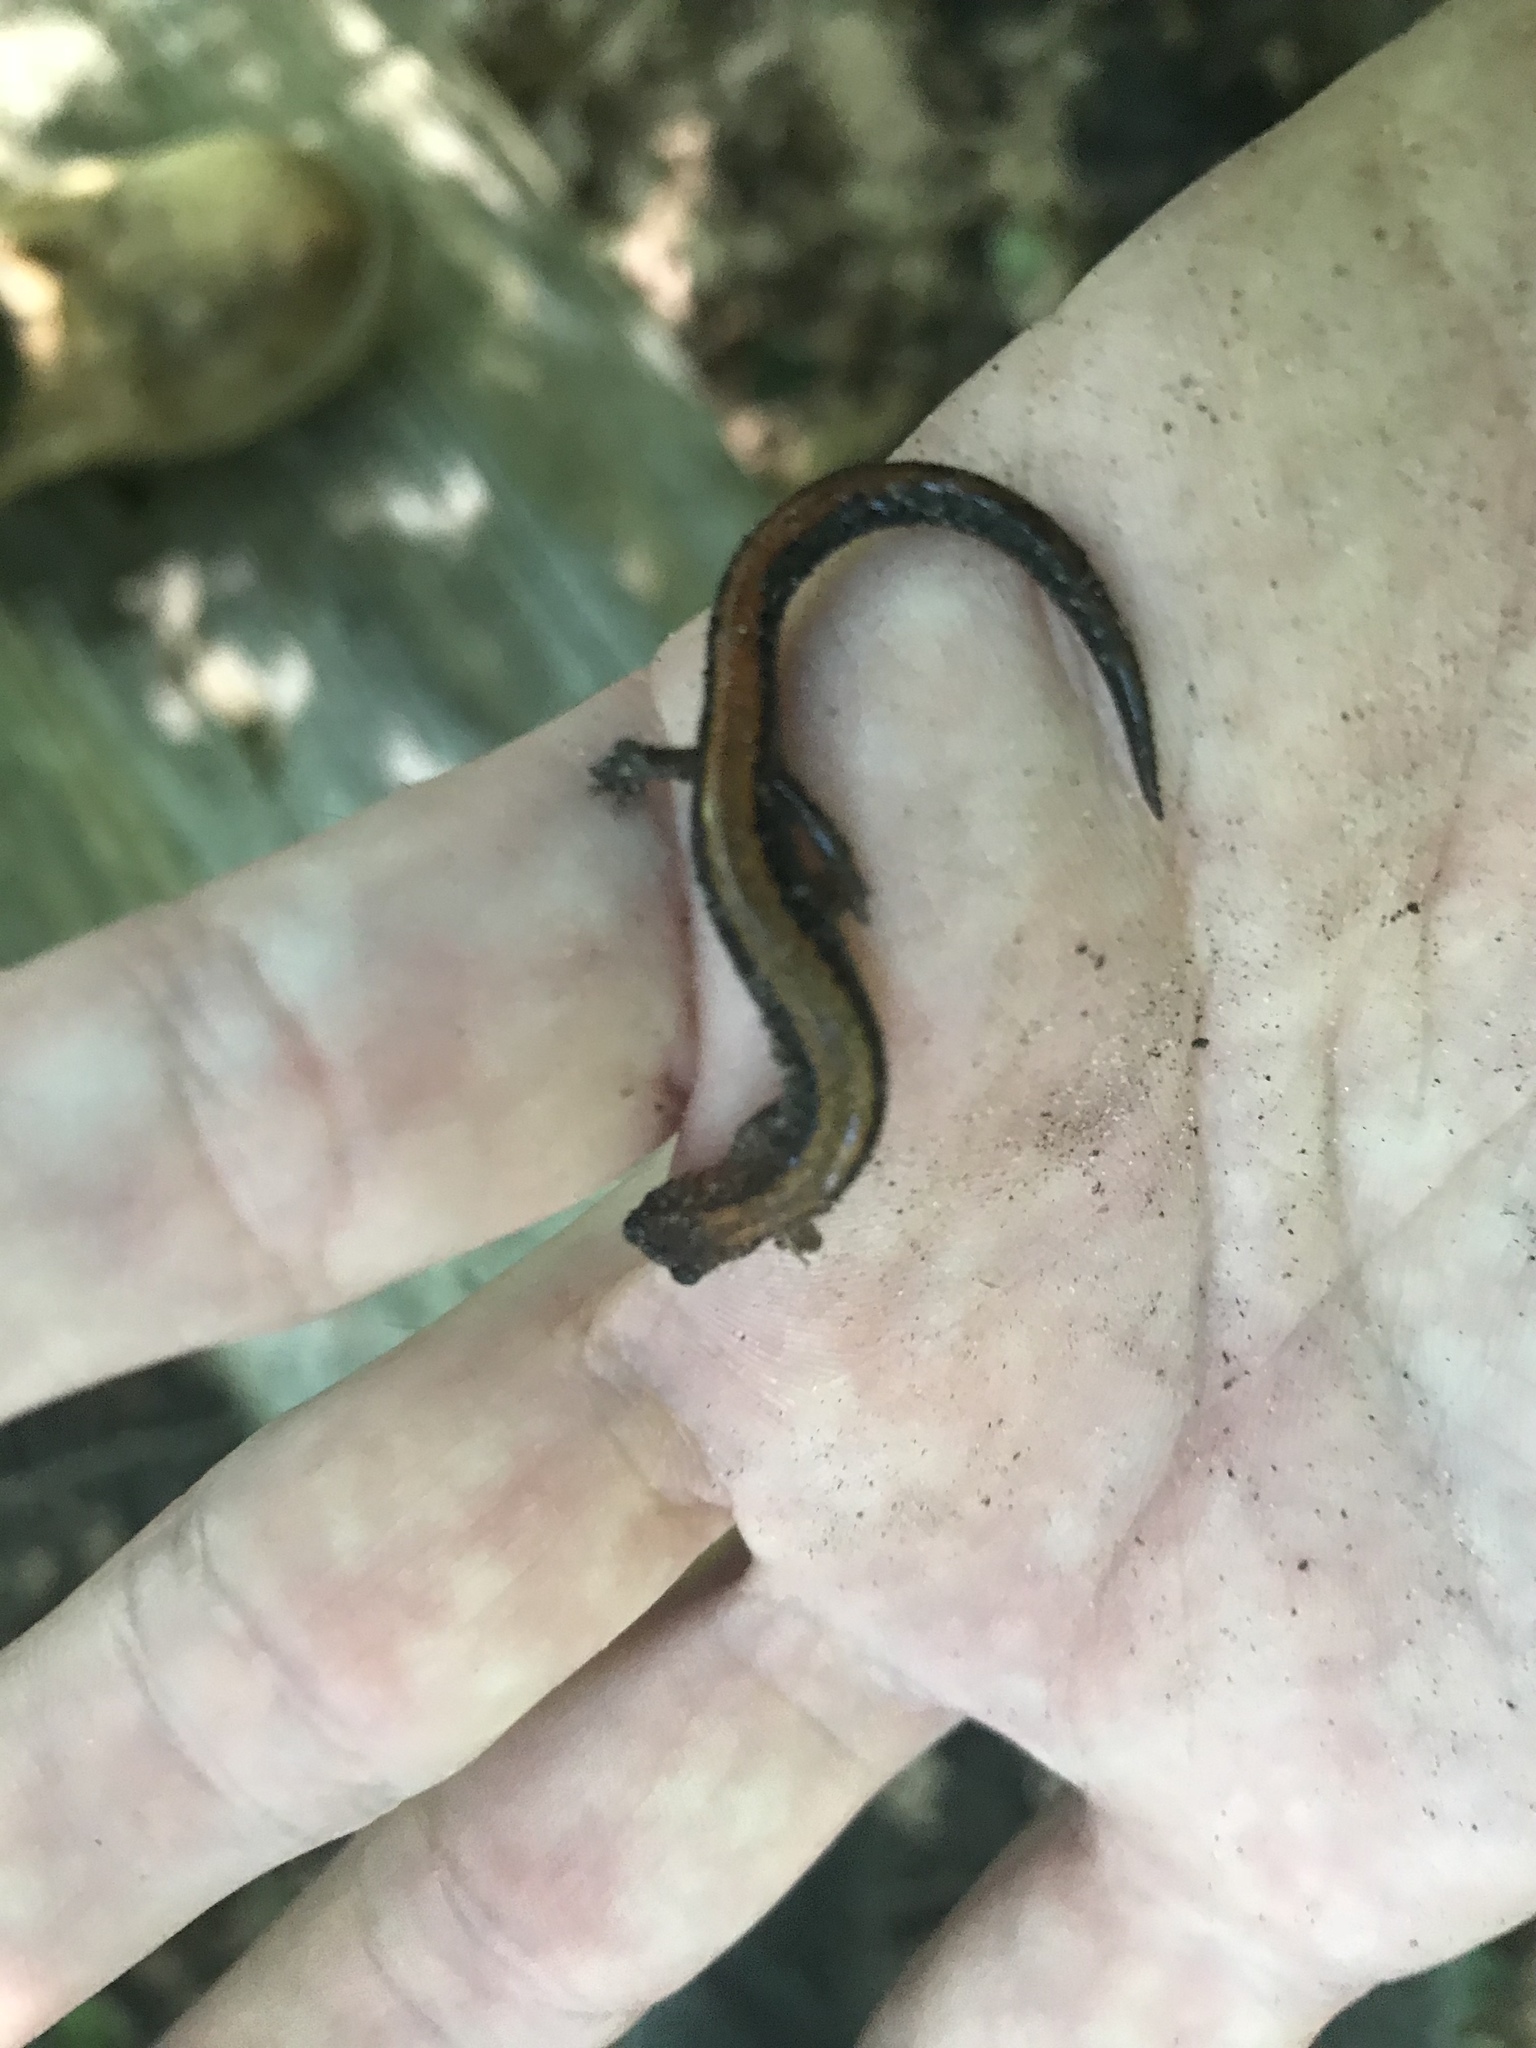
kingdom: Animalia
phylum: Chordata
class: Amphibia
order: Caudata
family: Plethodontidae
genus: Plethodon
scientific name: Plethodon cinereus
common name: Redback salamander
